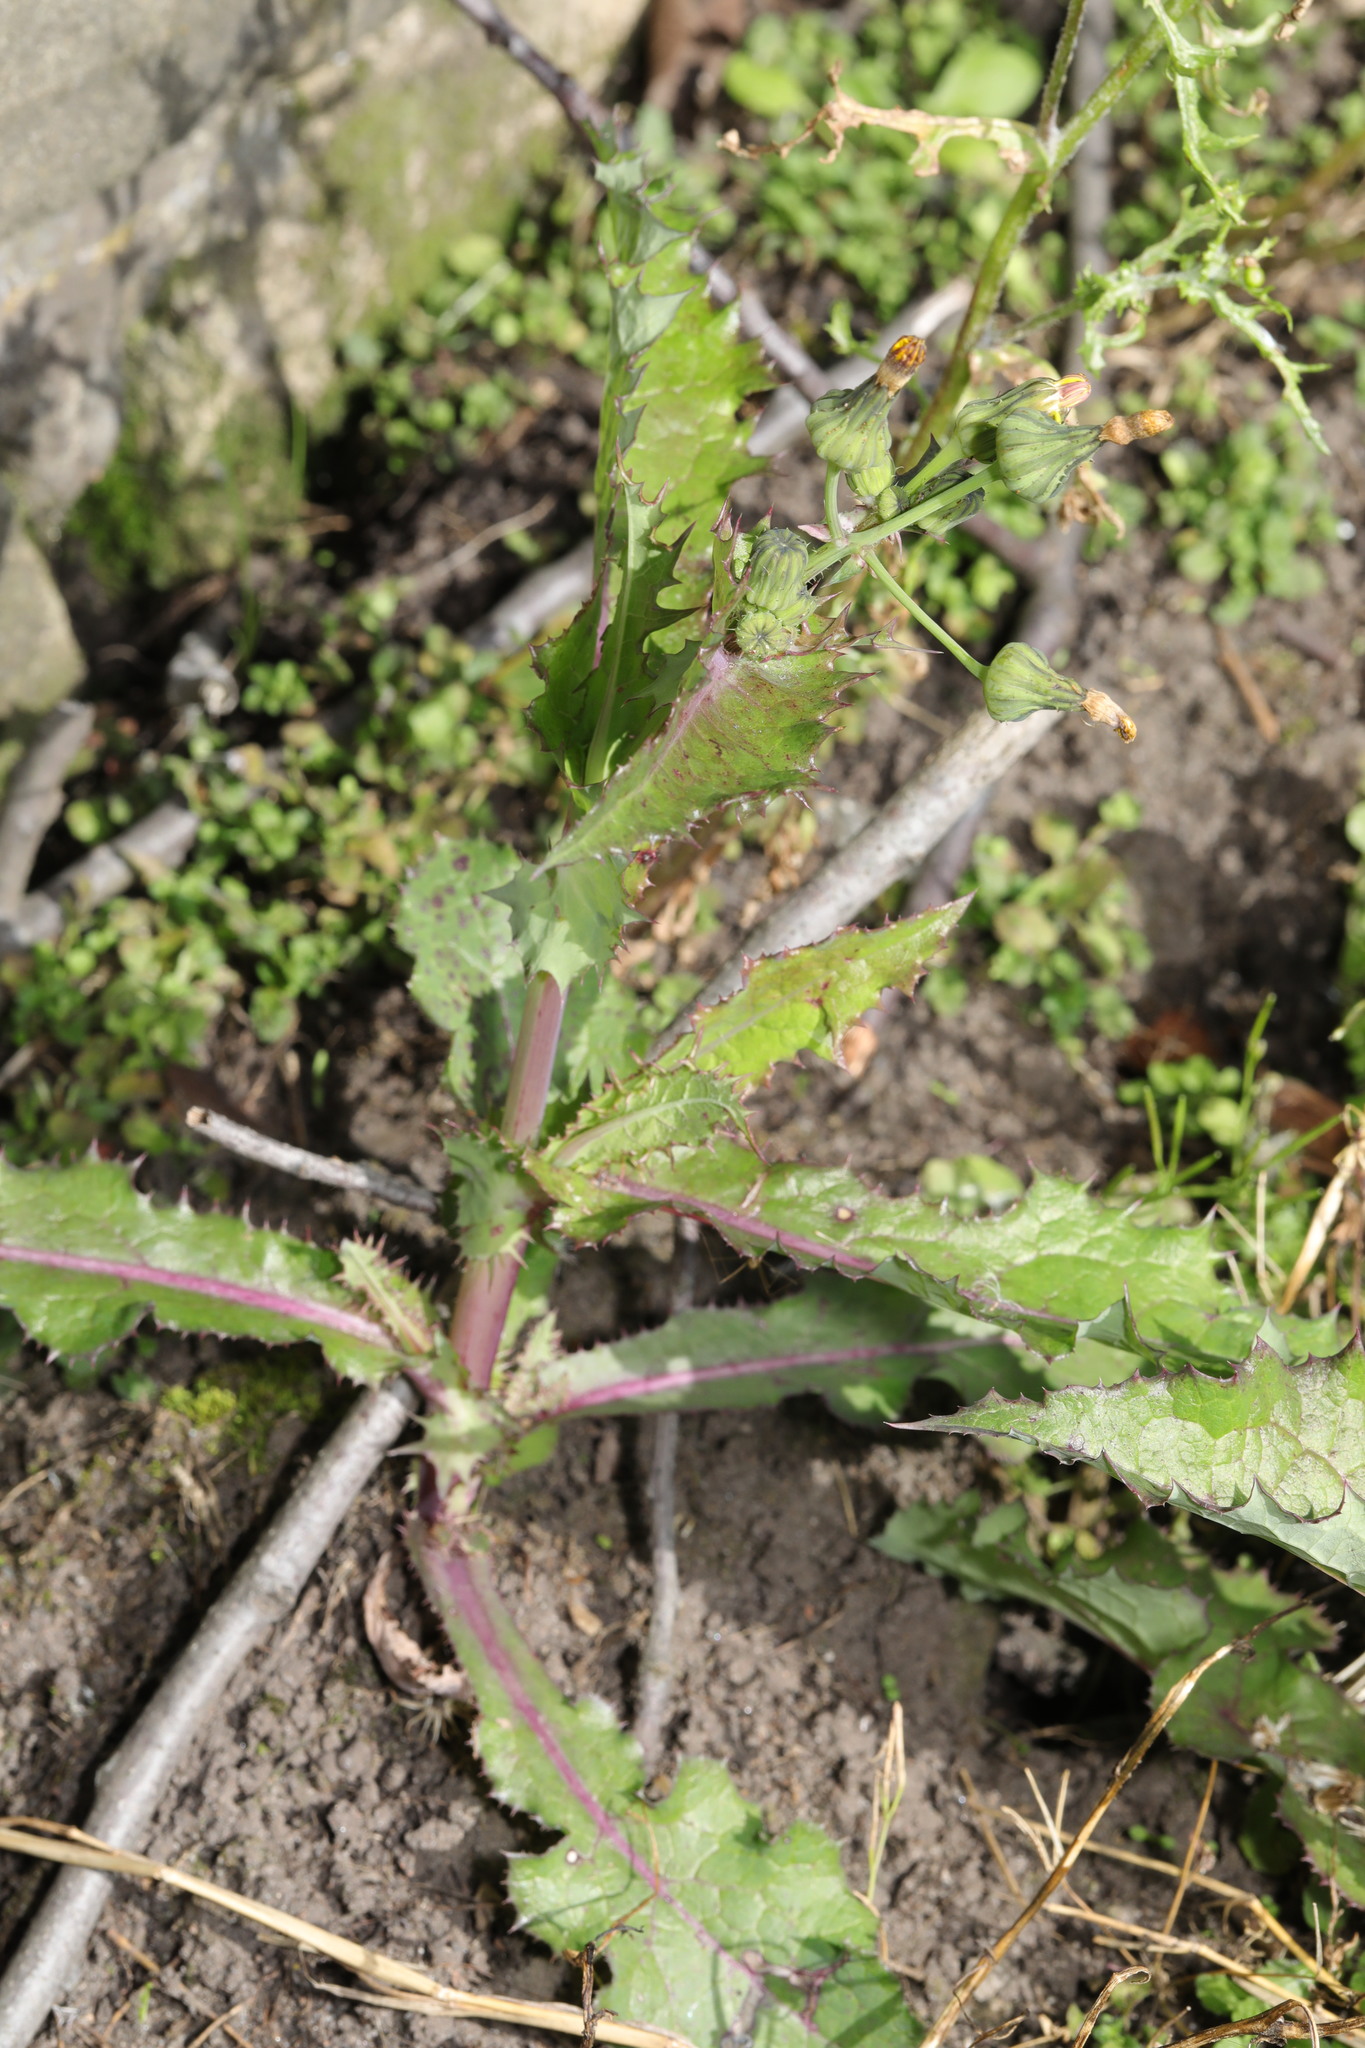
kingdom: Plantae
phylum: Tracheophyta
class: Magnoliopsida
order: Asterales
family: Asteraceae
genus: Sonchus
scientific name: Sonchus asper
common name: Prickly sow-thistle
